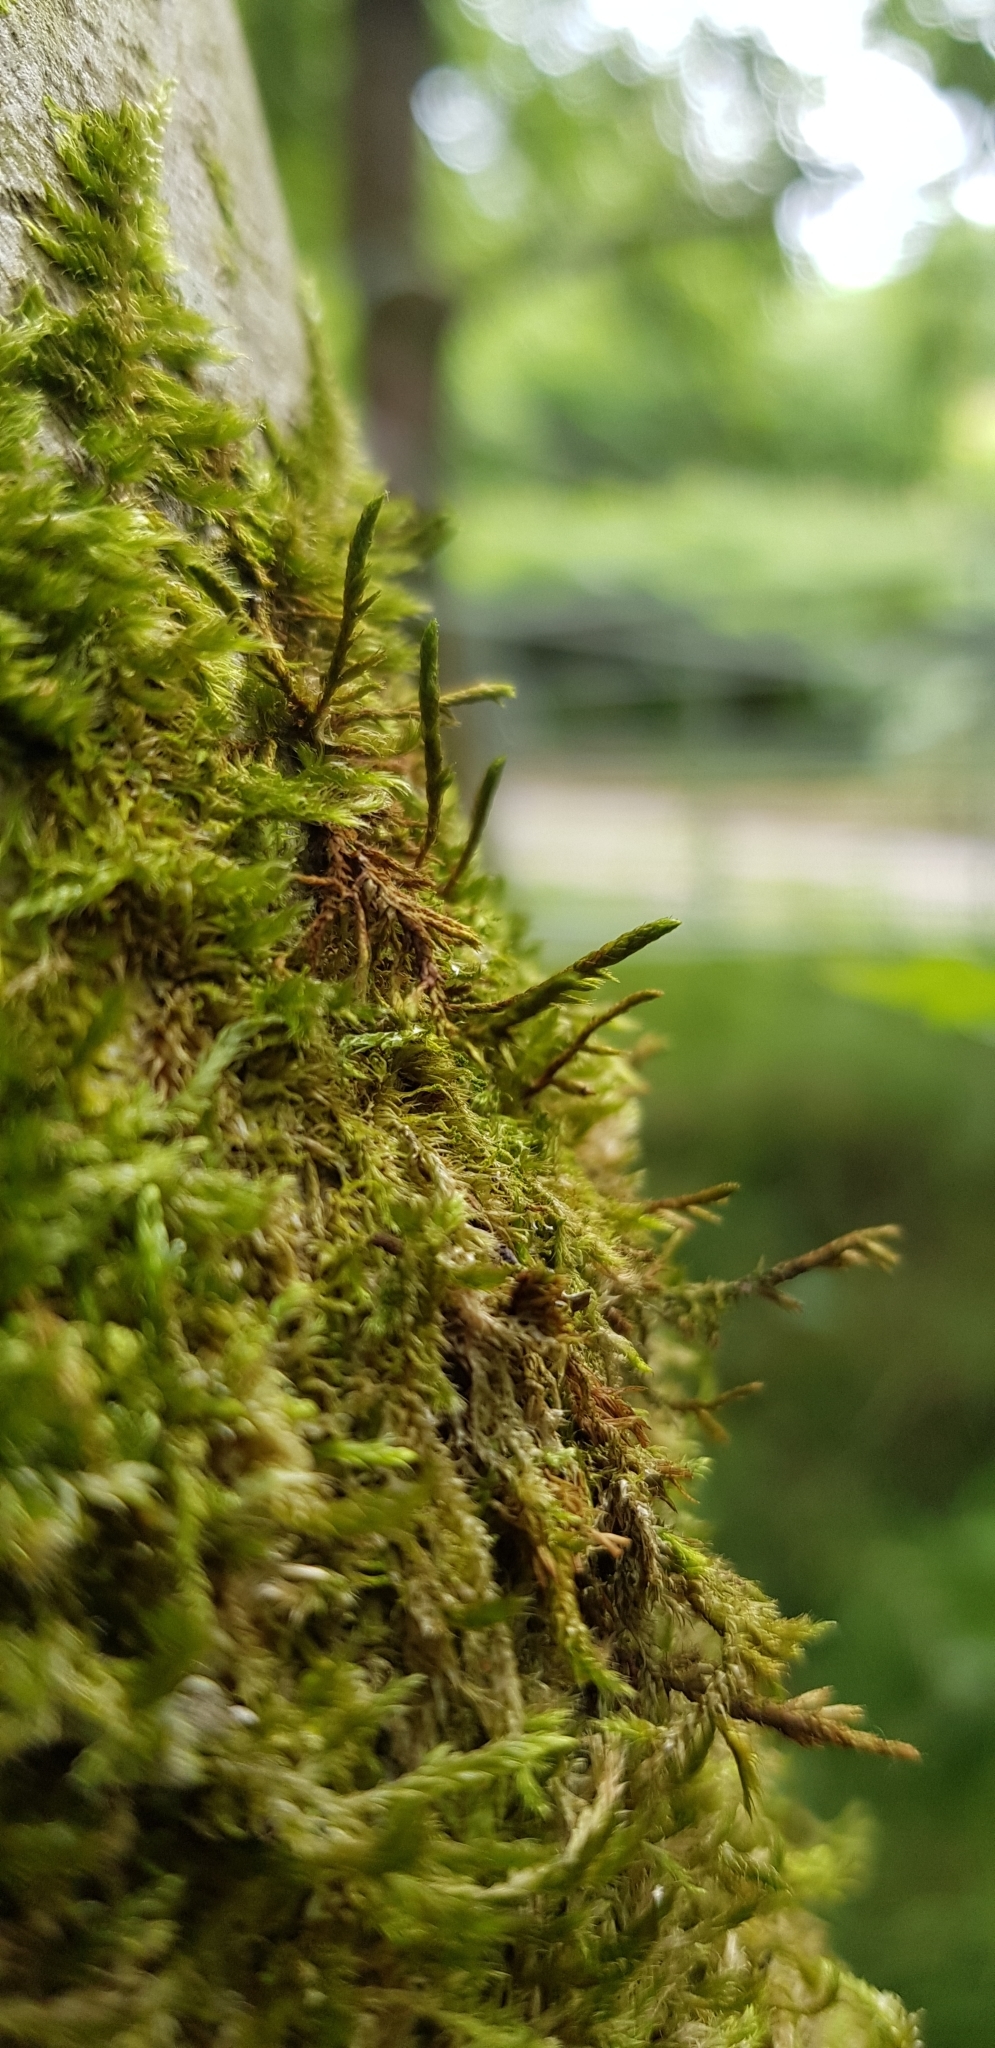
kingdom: Plantae
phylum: Bryophyta
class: Bryopsida
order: Hypnales
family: Cryphaeaceae
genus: Cryphaea
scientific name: Cryphaea heteromalla
